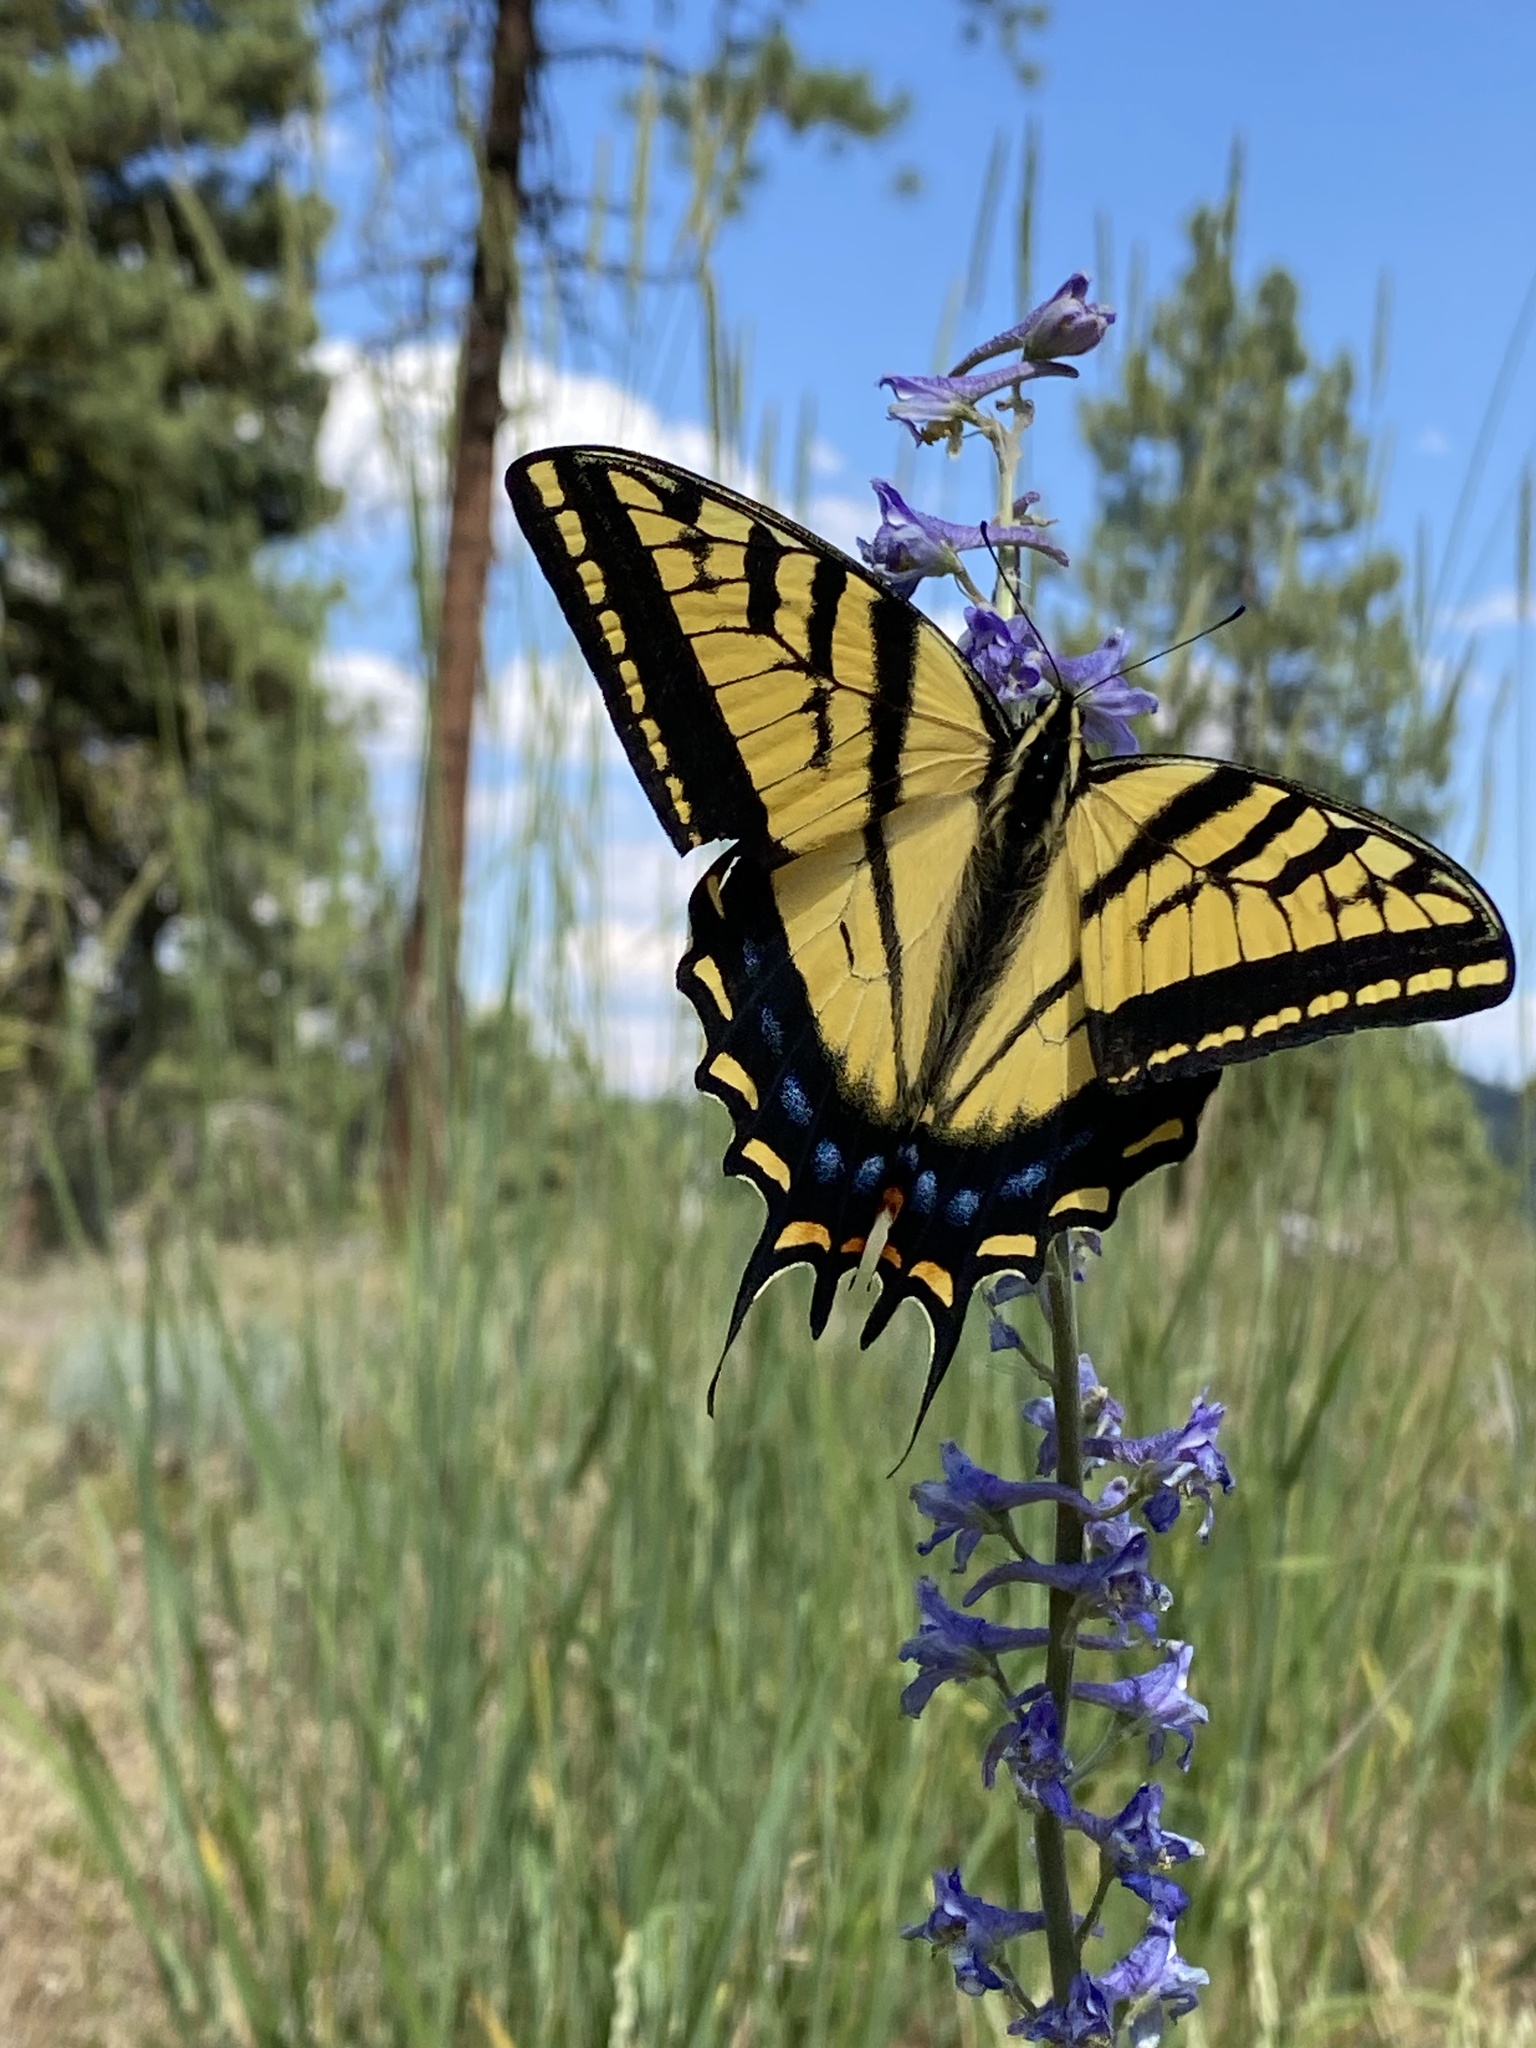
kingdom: Animalia
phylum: Arthropoda
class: Insecta
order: Lepidoptera
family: Papilionidae
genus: Papilio
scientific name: Papilio multicaudata
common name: Two-tailed tiger swallowtail
